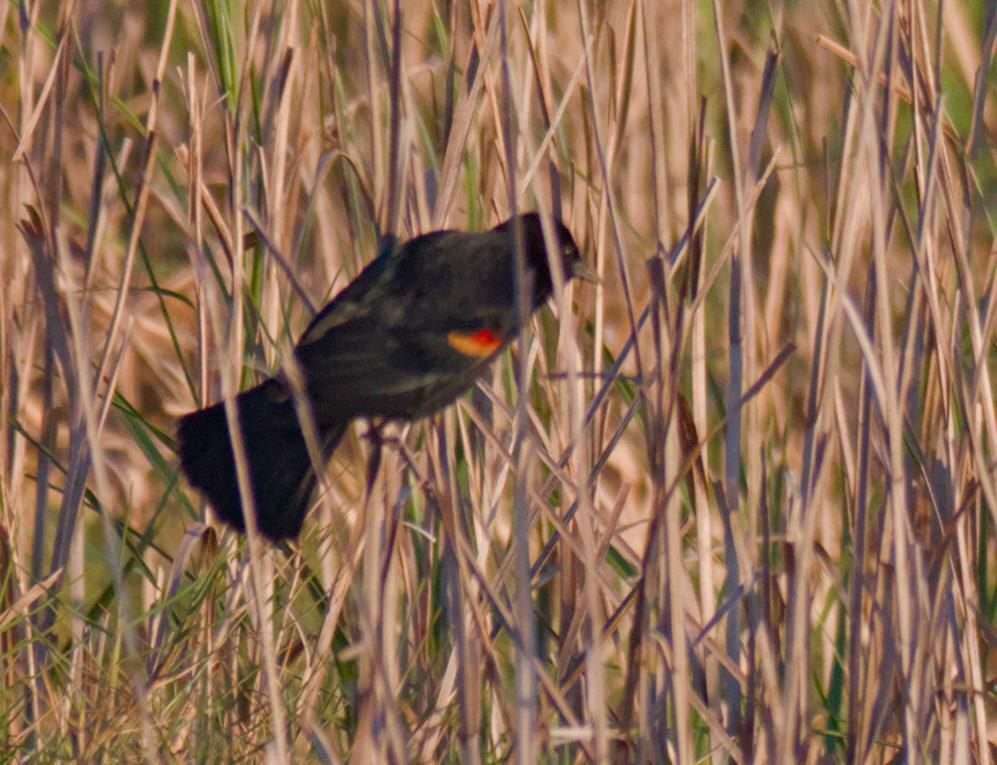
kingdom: Animalia
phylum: Chordata
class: Aves
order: Passeriformes
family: Icteridae
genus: Agelaius
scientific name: Agelaius phoeniceus
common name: Red-winged blackbird
